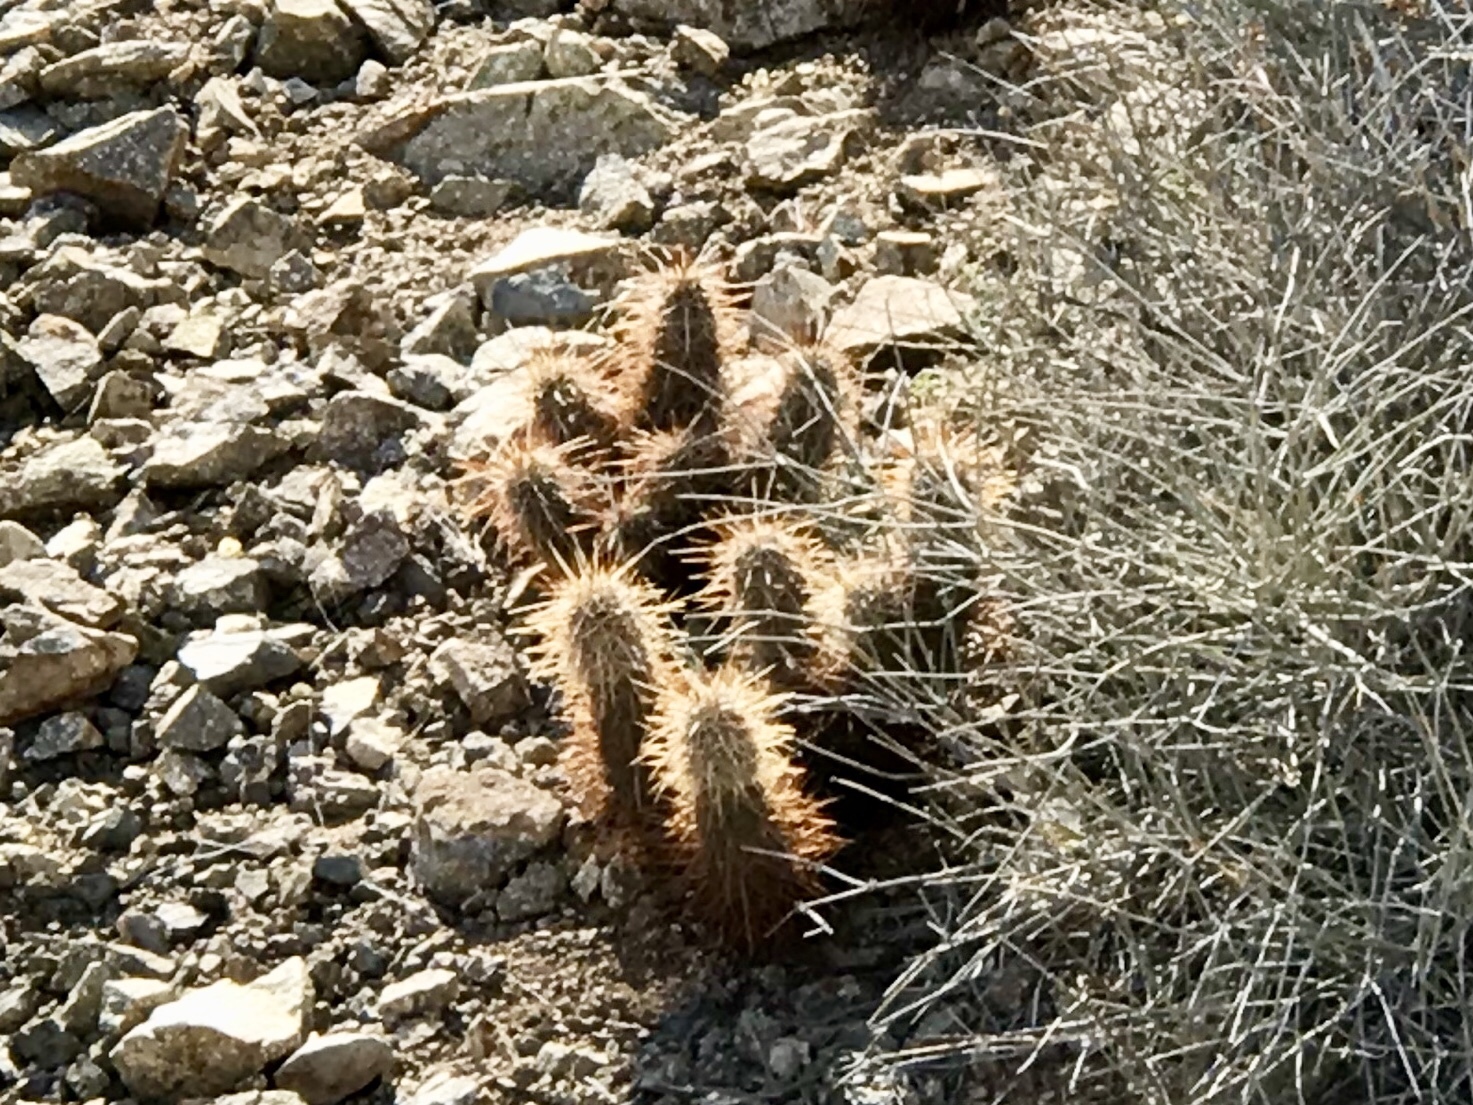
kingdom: Plantae
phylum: Tracheophyta
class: Magnoliopsida
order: Caryophyllales
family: Cactaceae
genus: Echinocereus
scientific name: Echinocereus engelmannii
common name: Engelmann's hedgehog cactus
